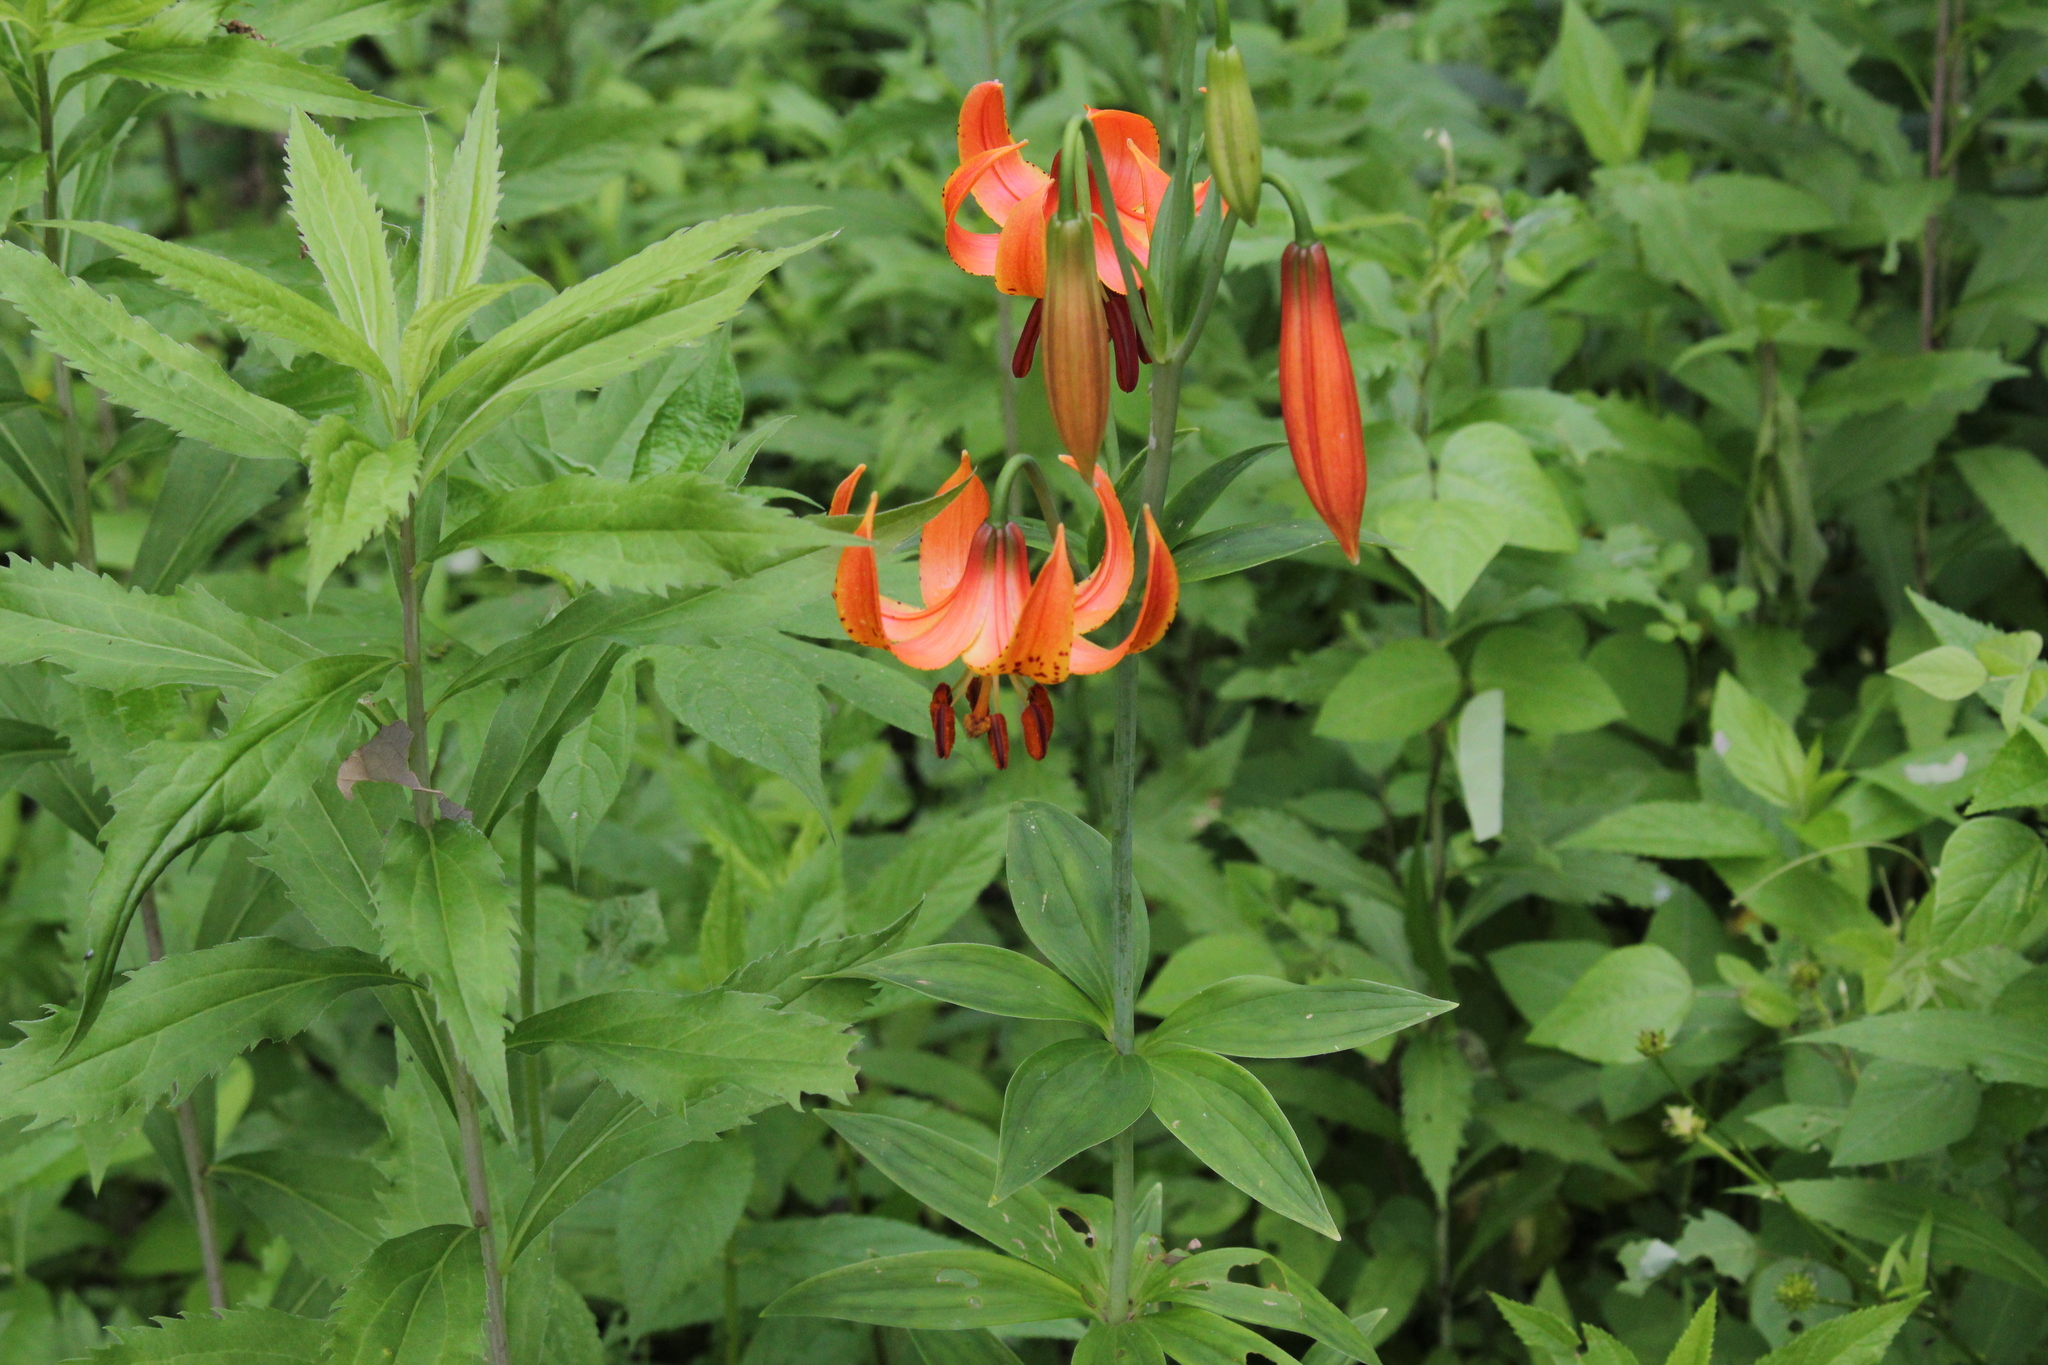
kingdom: Plantae
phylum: Tracheophyta
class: Liliopsida
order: Liliales
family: Liliaceae
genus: Lilium
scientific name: Lilium michiganense
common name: Michigan lily
